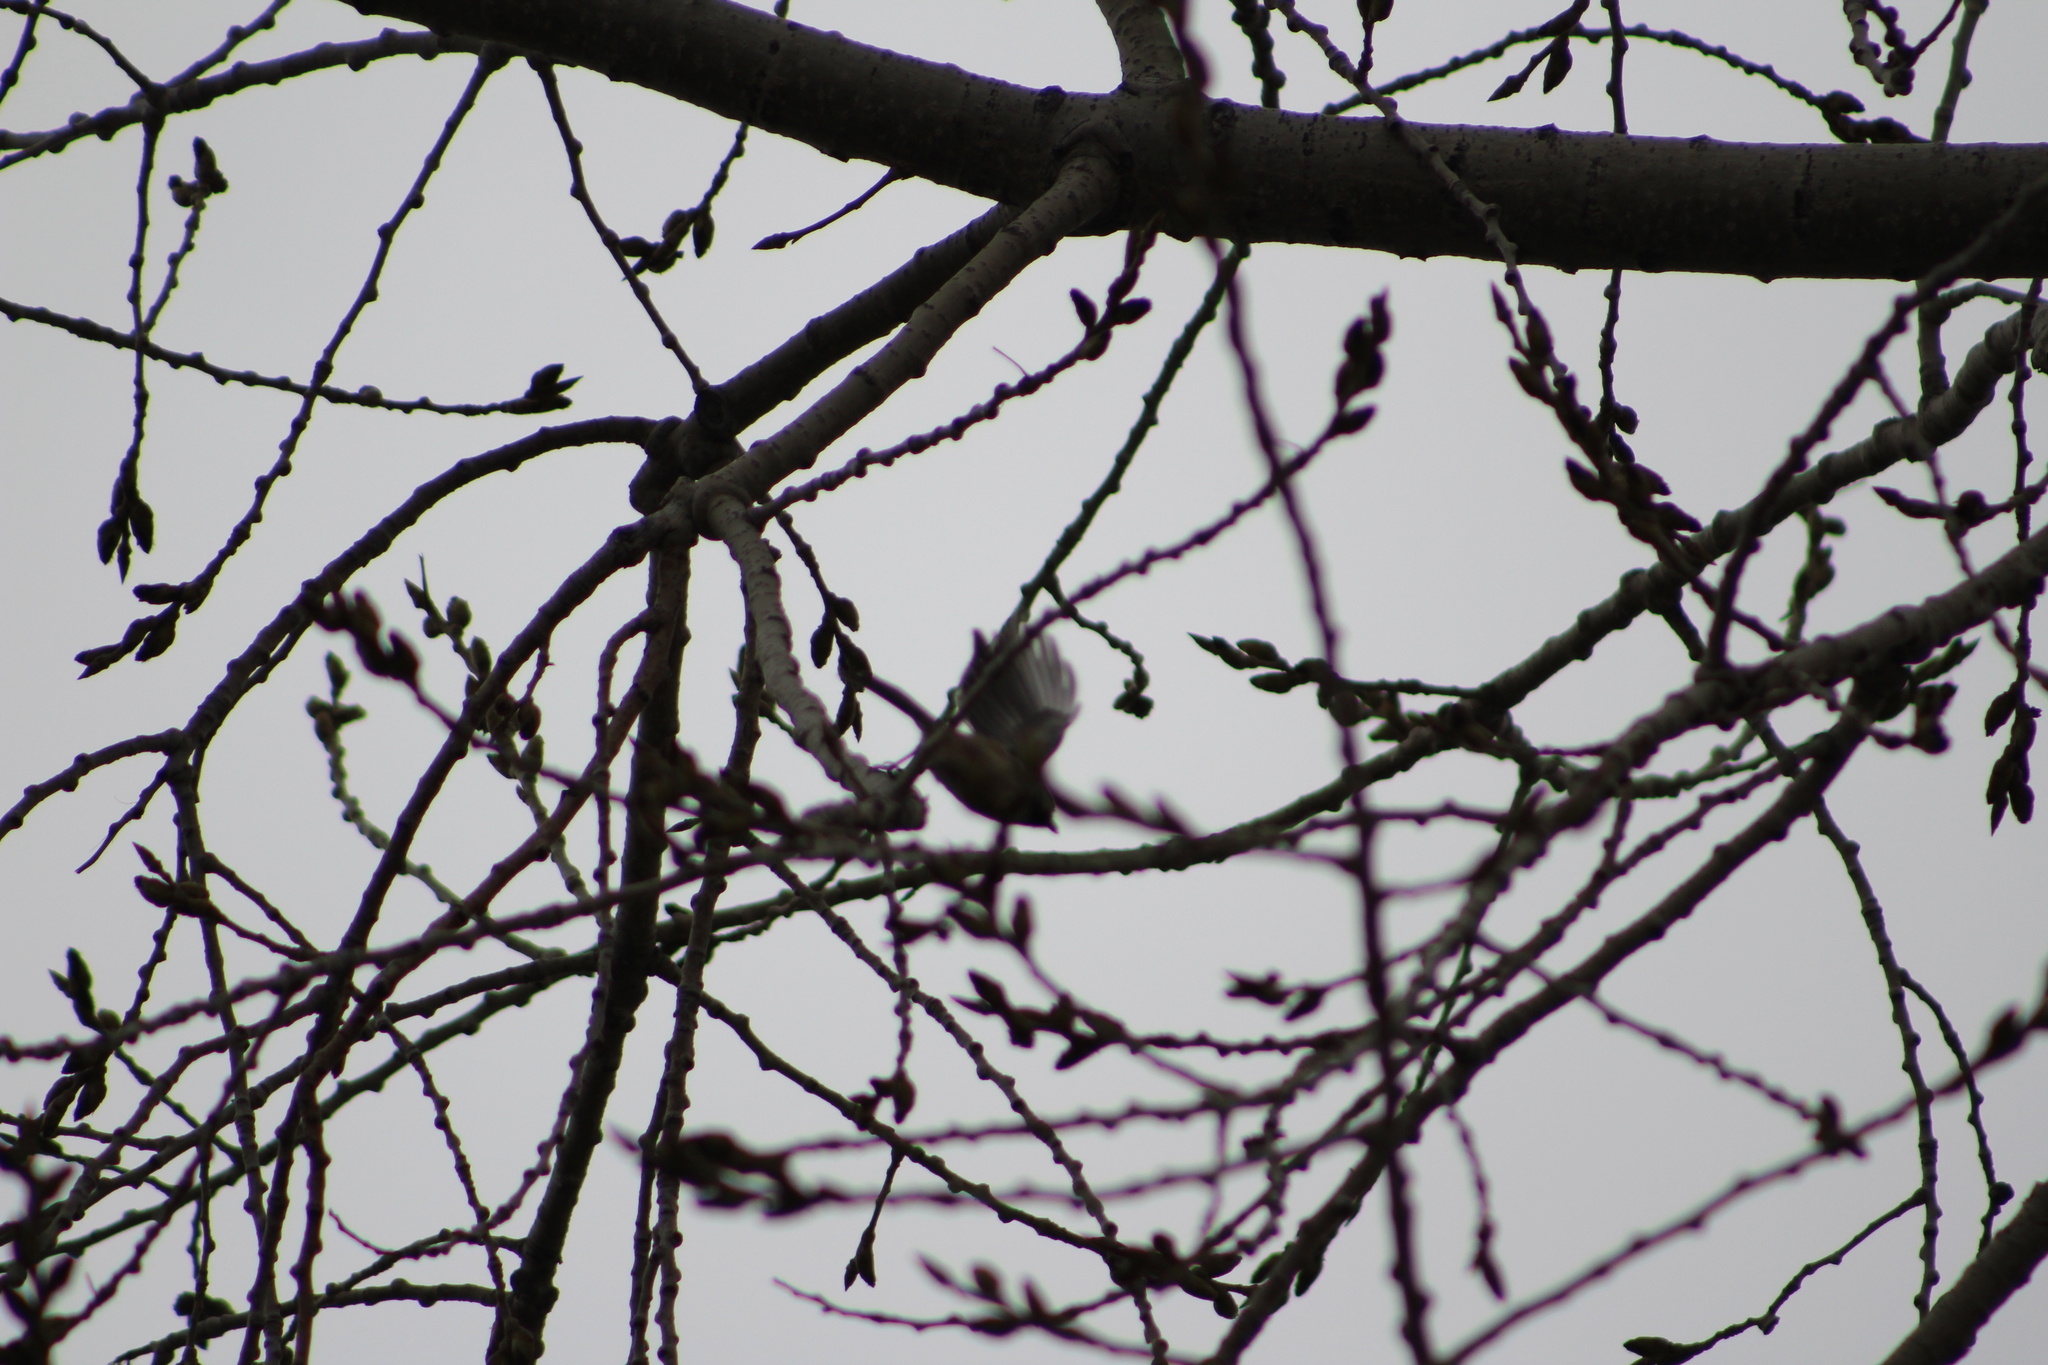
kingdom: Animalia
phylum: Chordata
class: Aves
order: Passeriformes
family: Paridae
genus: Poecile
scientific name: Poecile atricapillus
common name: Black-capped chickadee
